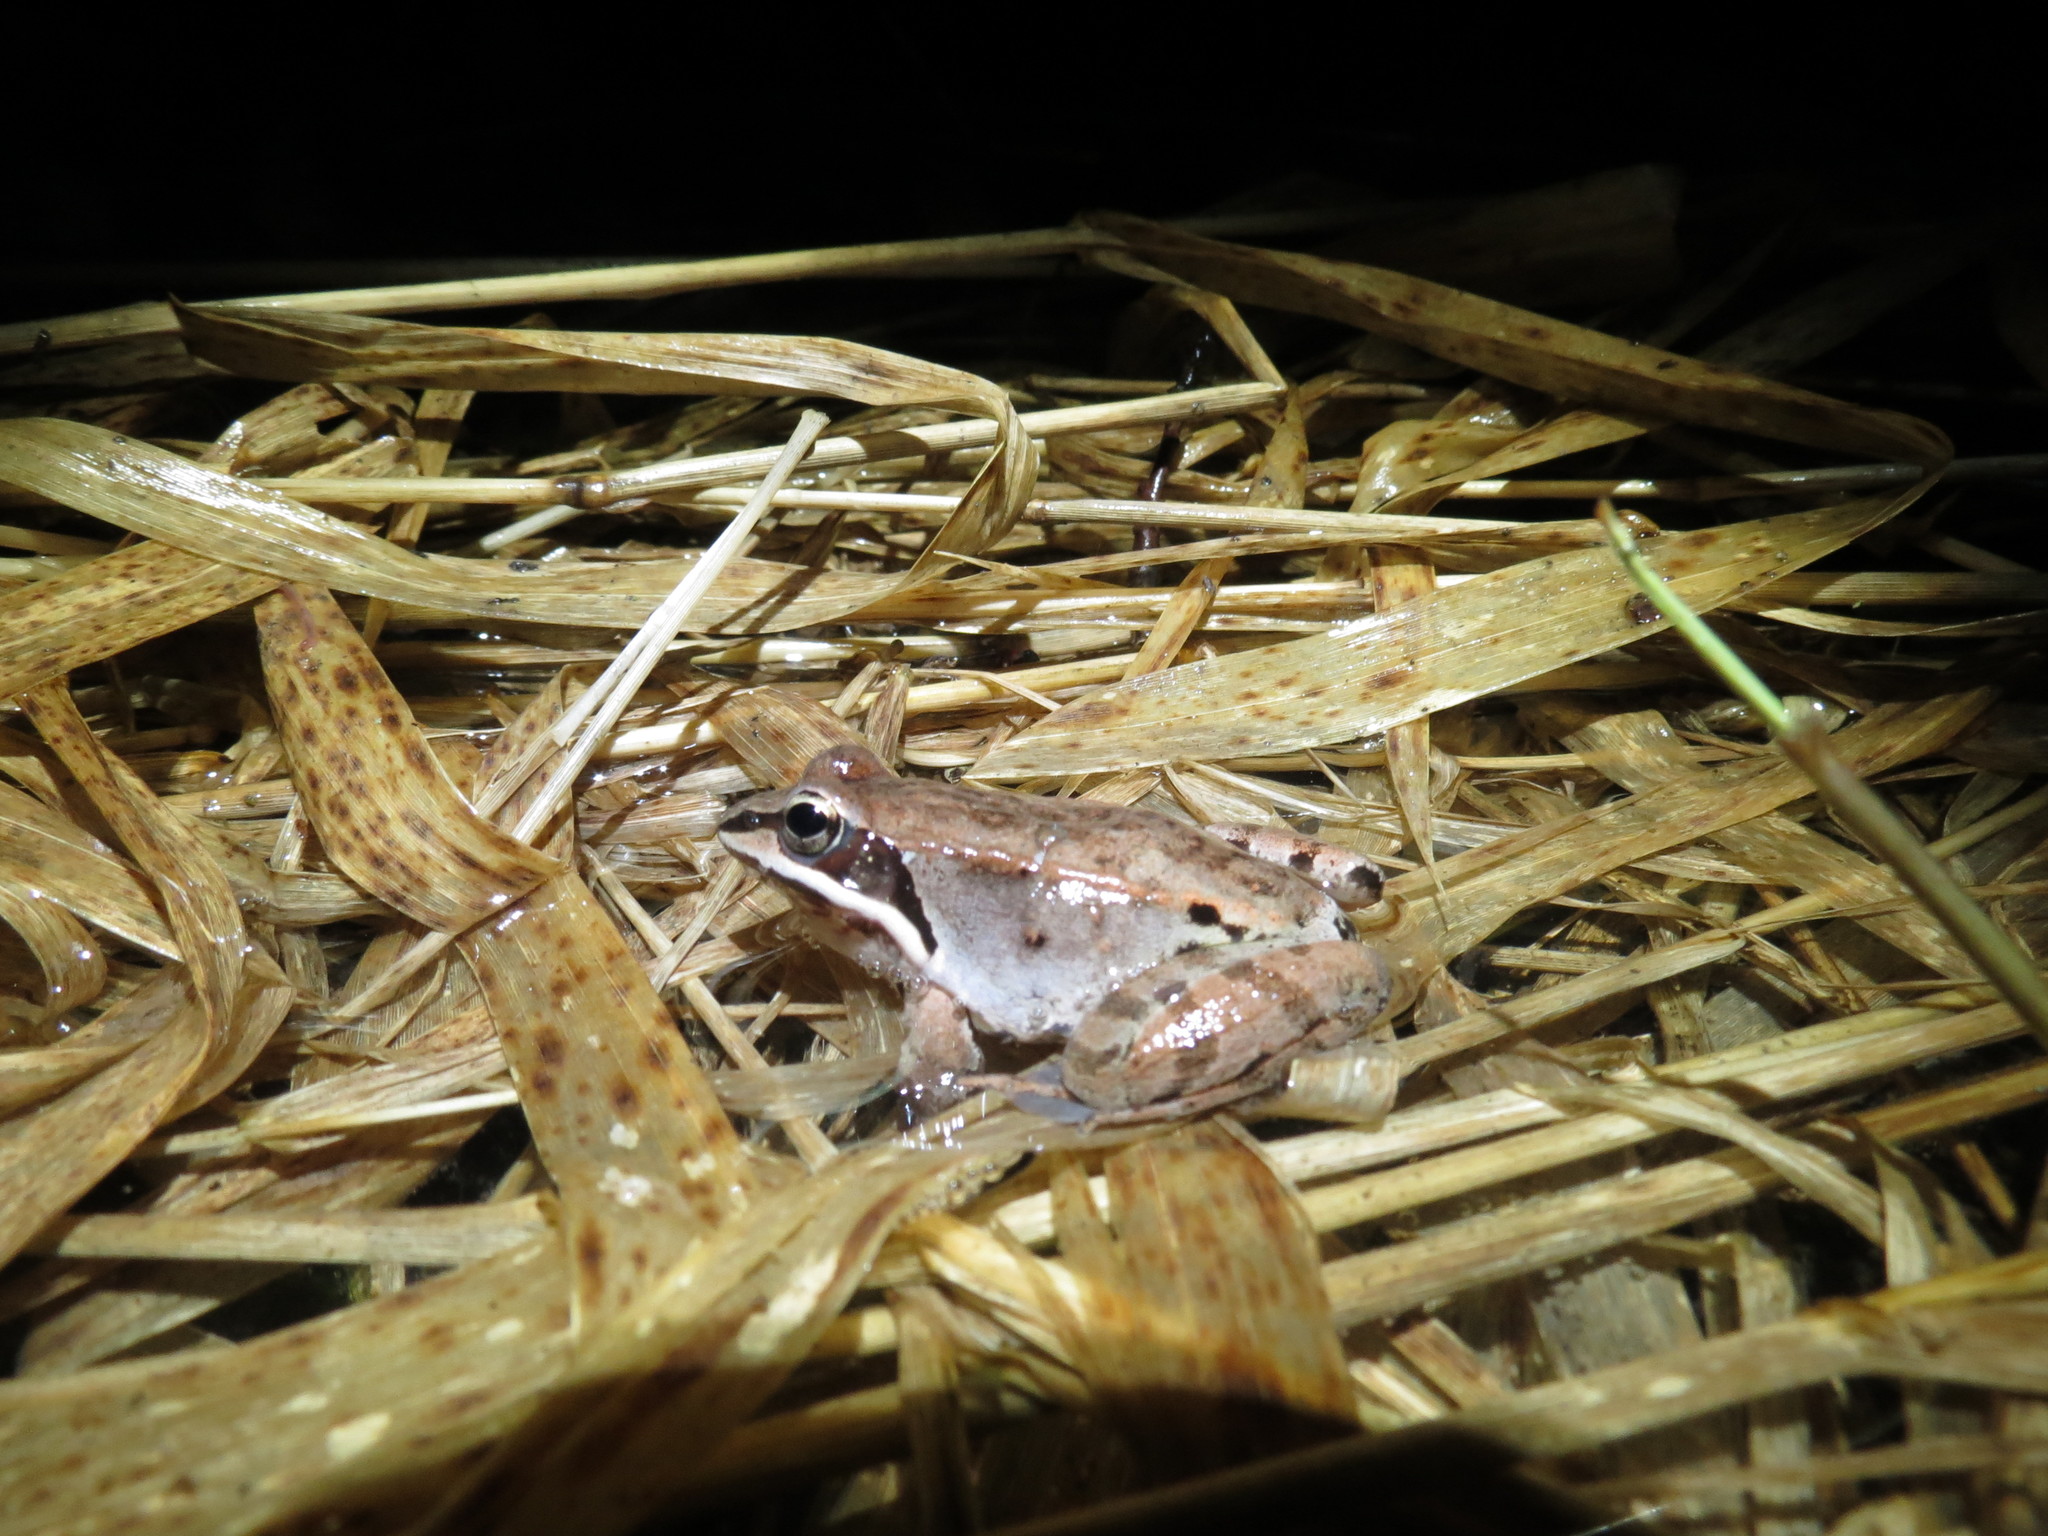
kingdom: Animalia
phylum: Chordata
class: Amphibia
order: Anura
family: Ranidae
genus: Lithobates
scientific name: Lithobates sylvaticus
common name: Wood frog
